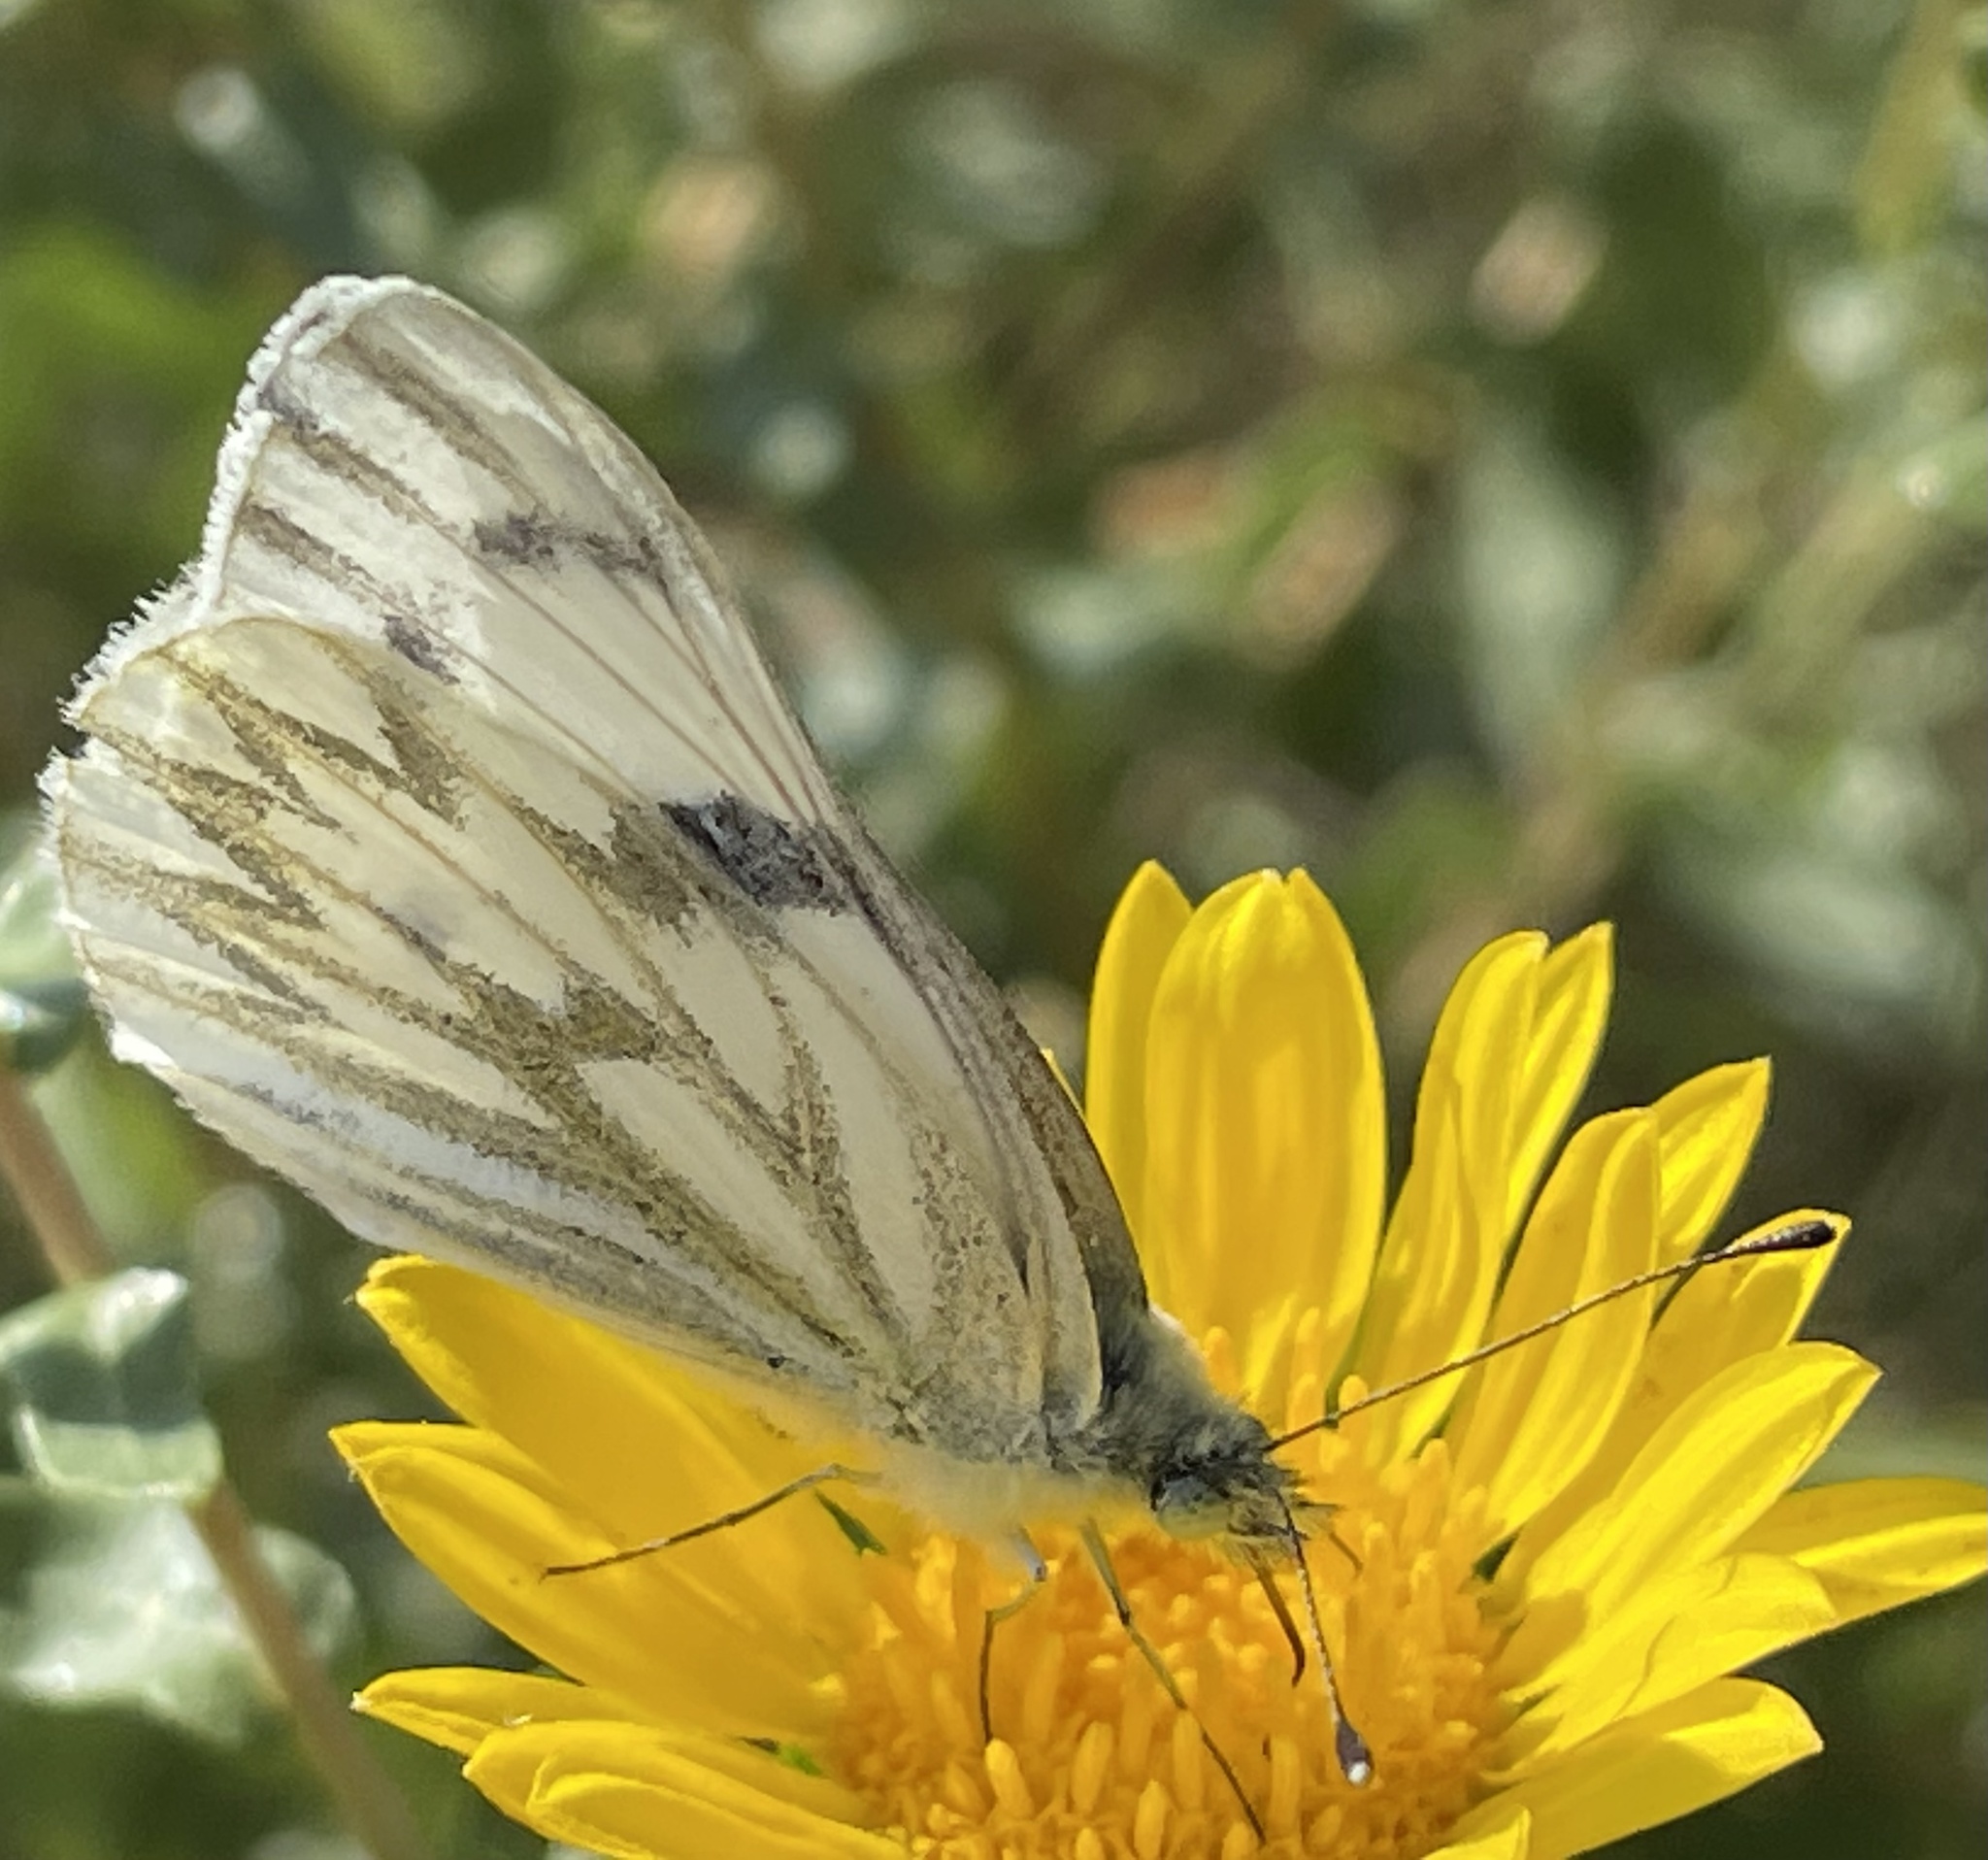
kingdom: Animalia
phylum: Arthropoda
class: Insecta
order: Lepidoptera
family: Pieridae
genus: Pontia
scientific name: Pontia occidentalis
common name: Western white
